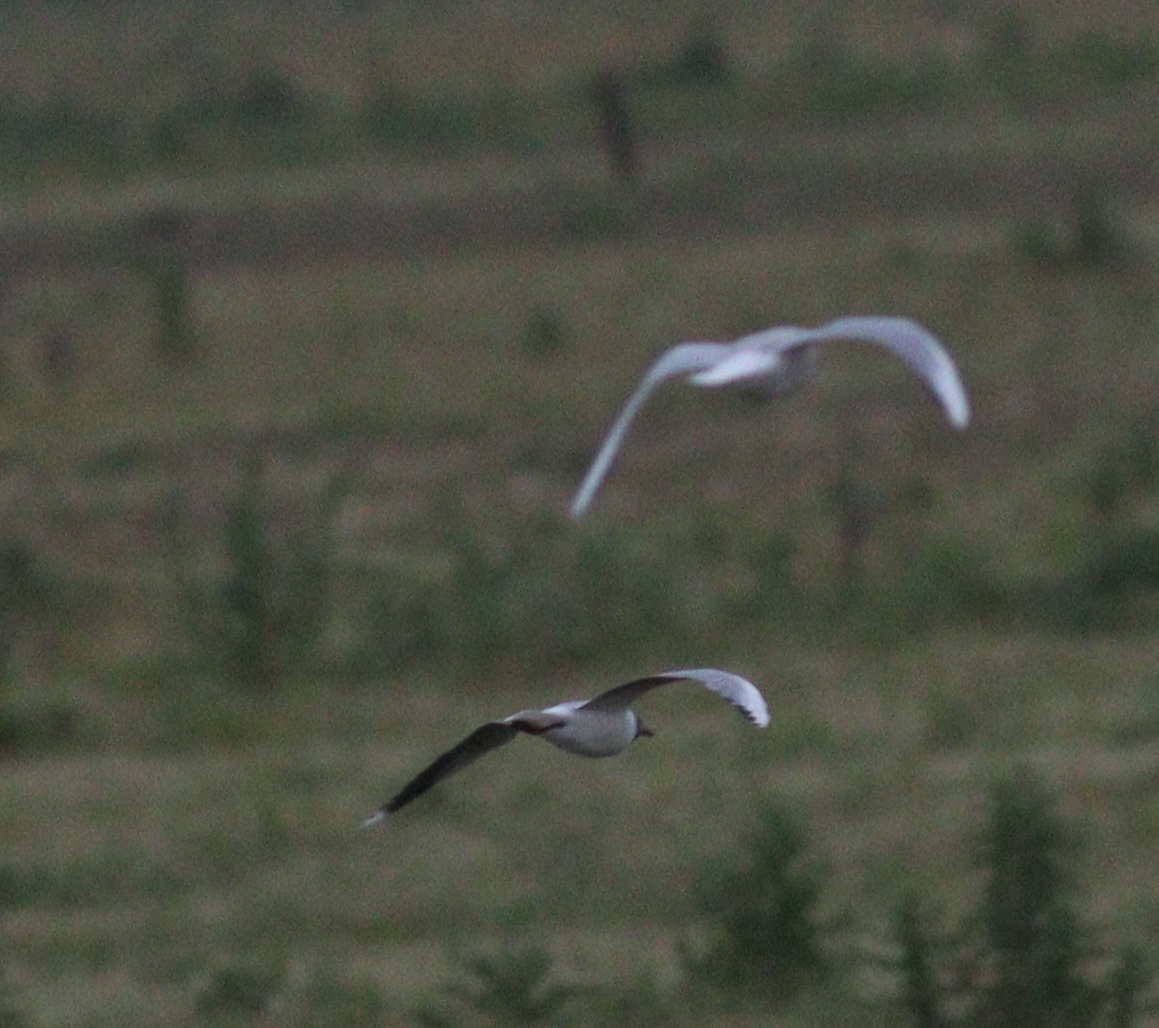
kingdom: Animalia
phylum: Chordata
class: Aves
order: Charadriiformes
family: Laridae
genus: Chroicocephalus
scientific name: Chroicocephalus maculipennis
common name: Brown-hooded gull
